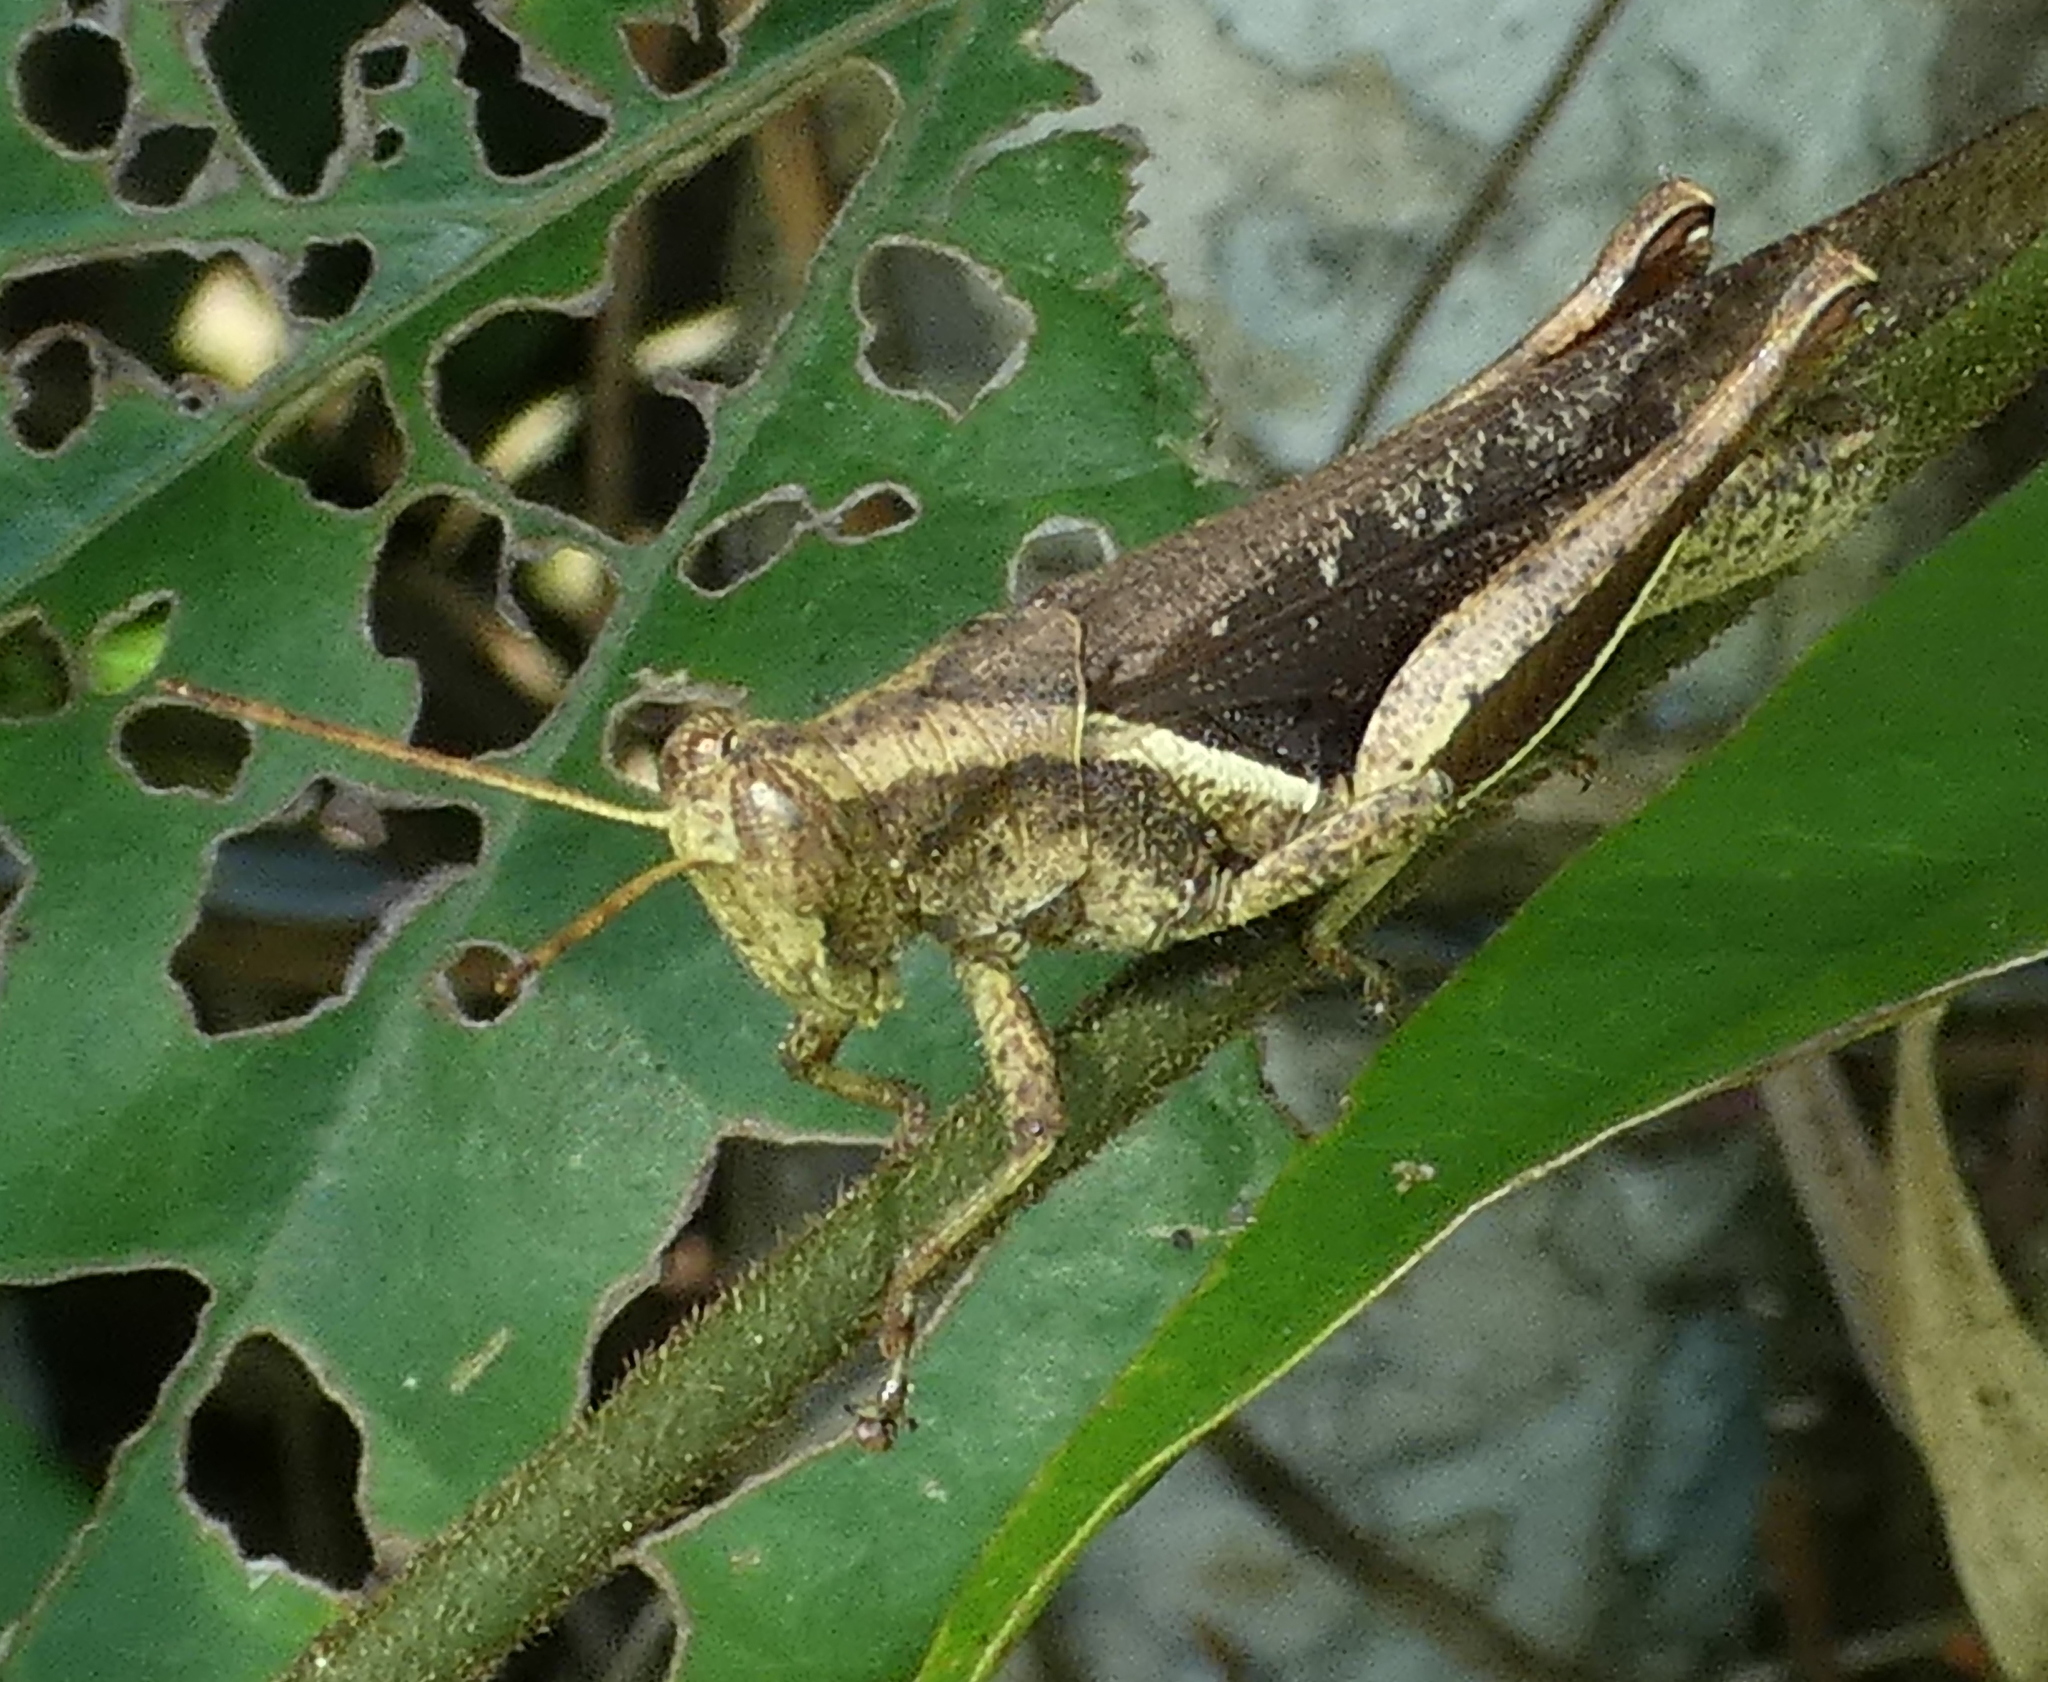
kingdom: Animalia
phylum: Arthropoda
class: Insecta
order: Orthoptera
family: Acrididae
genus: Abracris
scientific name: Abracris flavolineata
